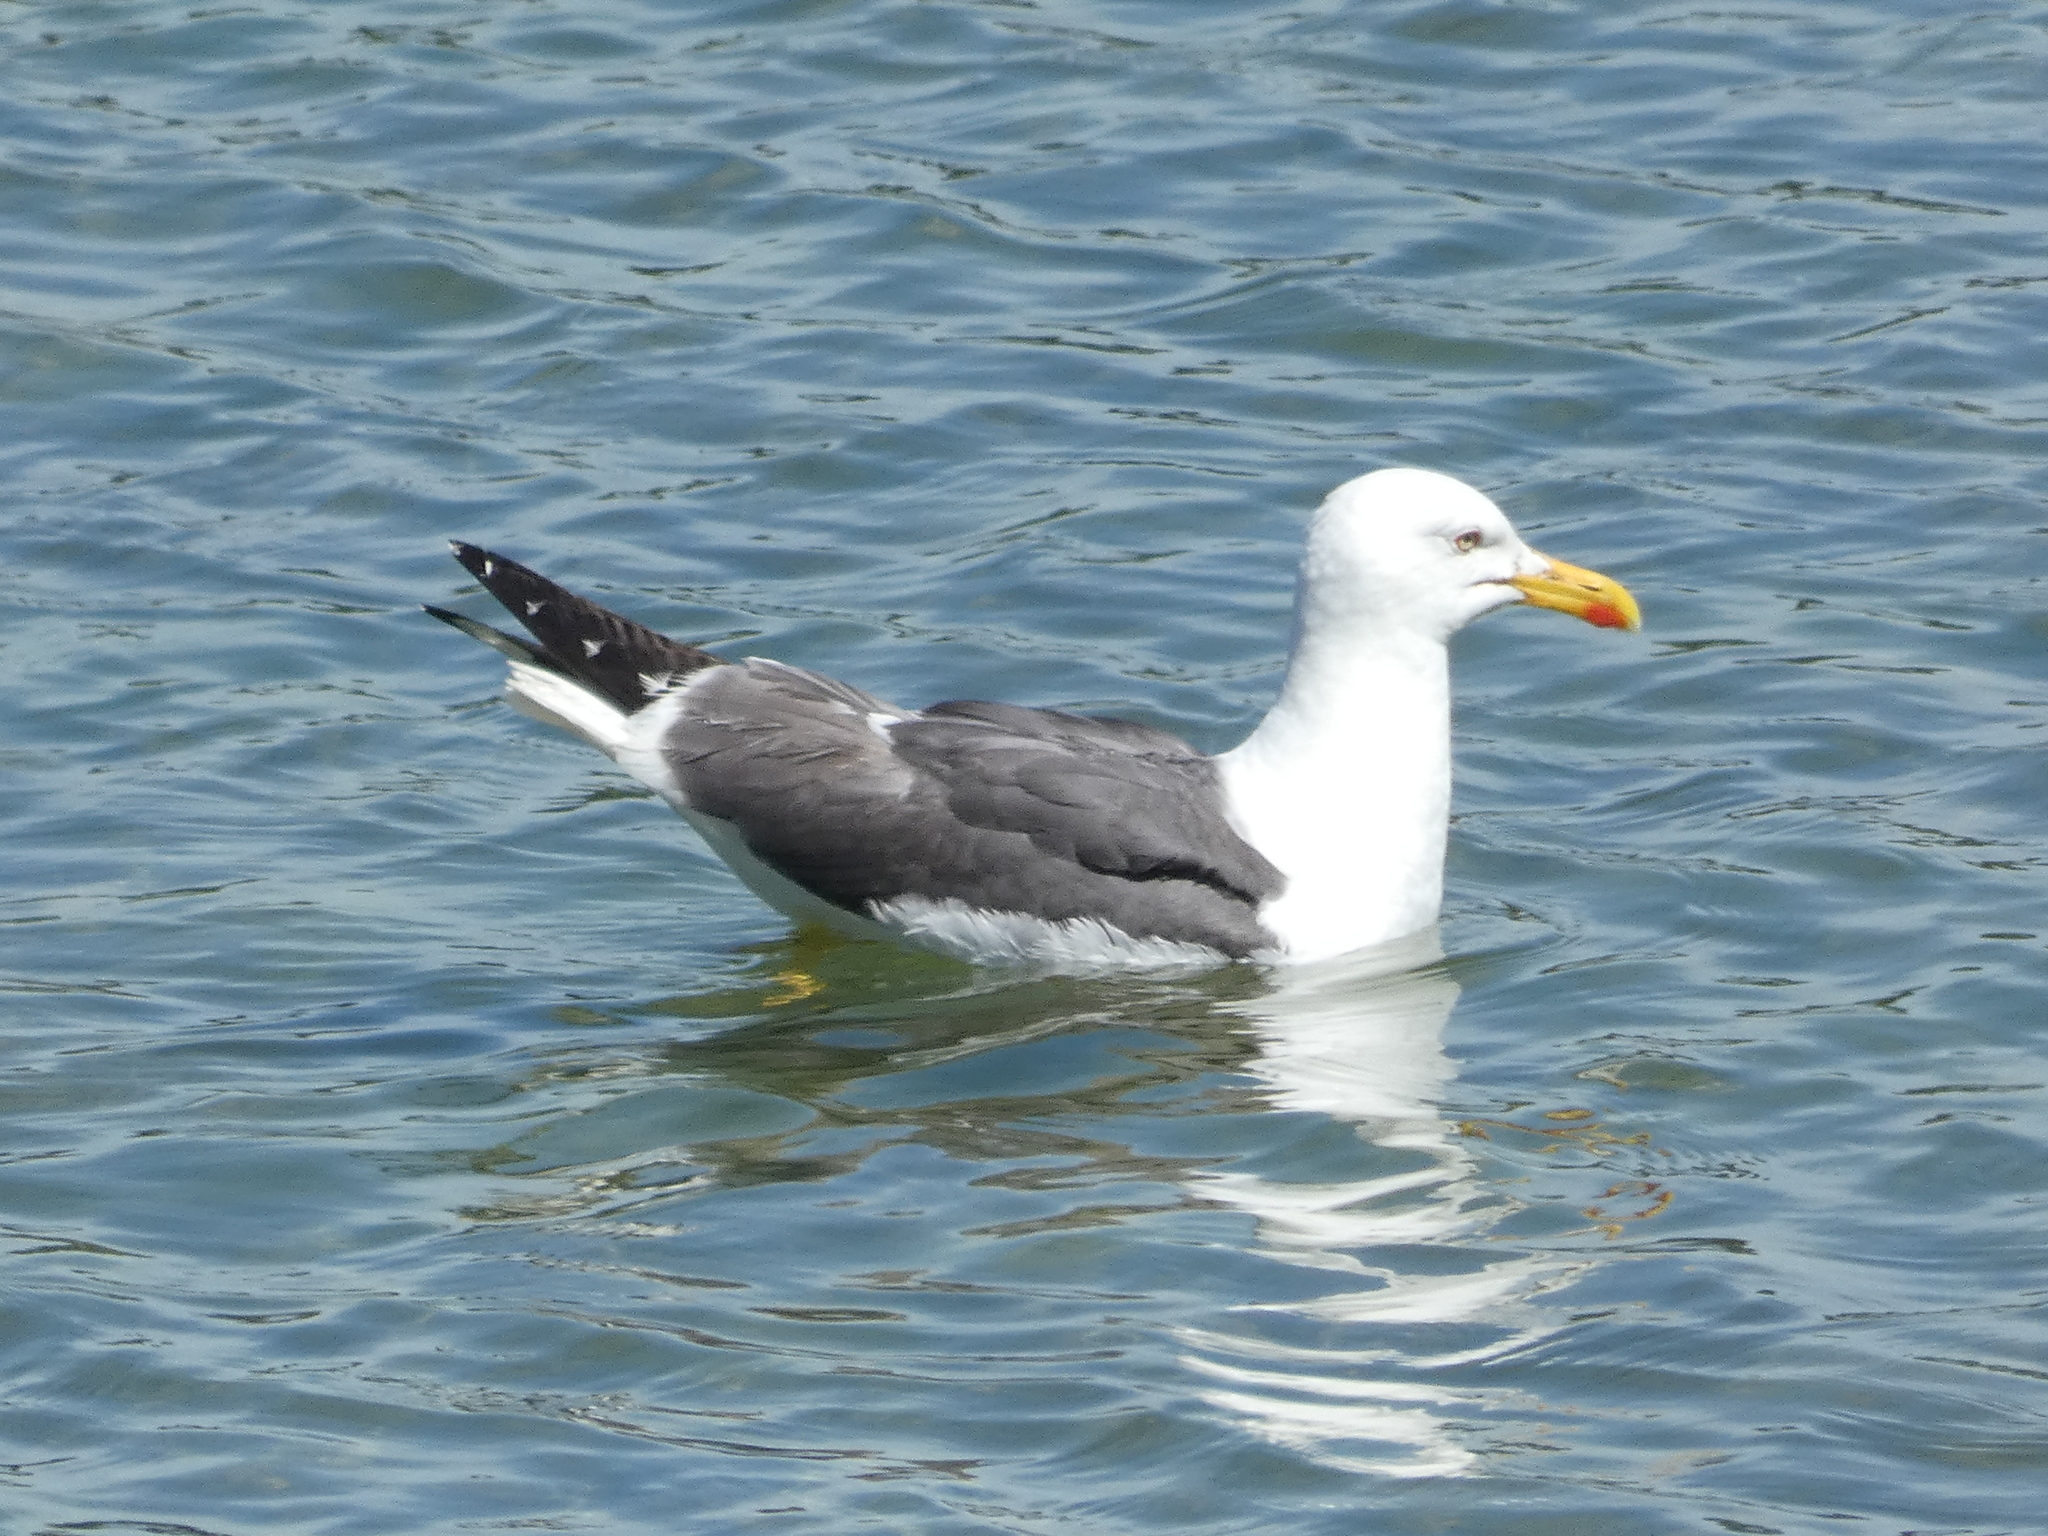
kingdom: Animalia
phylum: Chordata
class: Aves
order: Charadriiformes
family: Laridae
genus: Larus
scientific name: Larus fuscus
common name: Lesser black-backed gull
